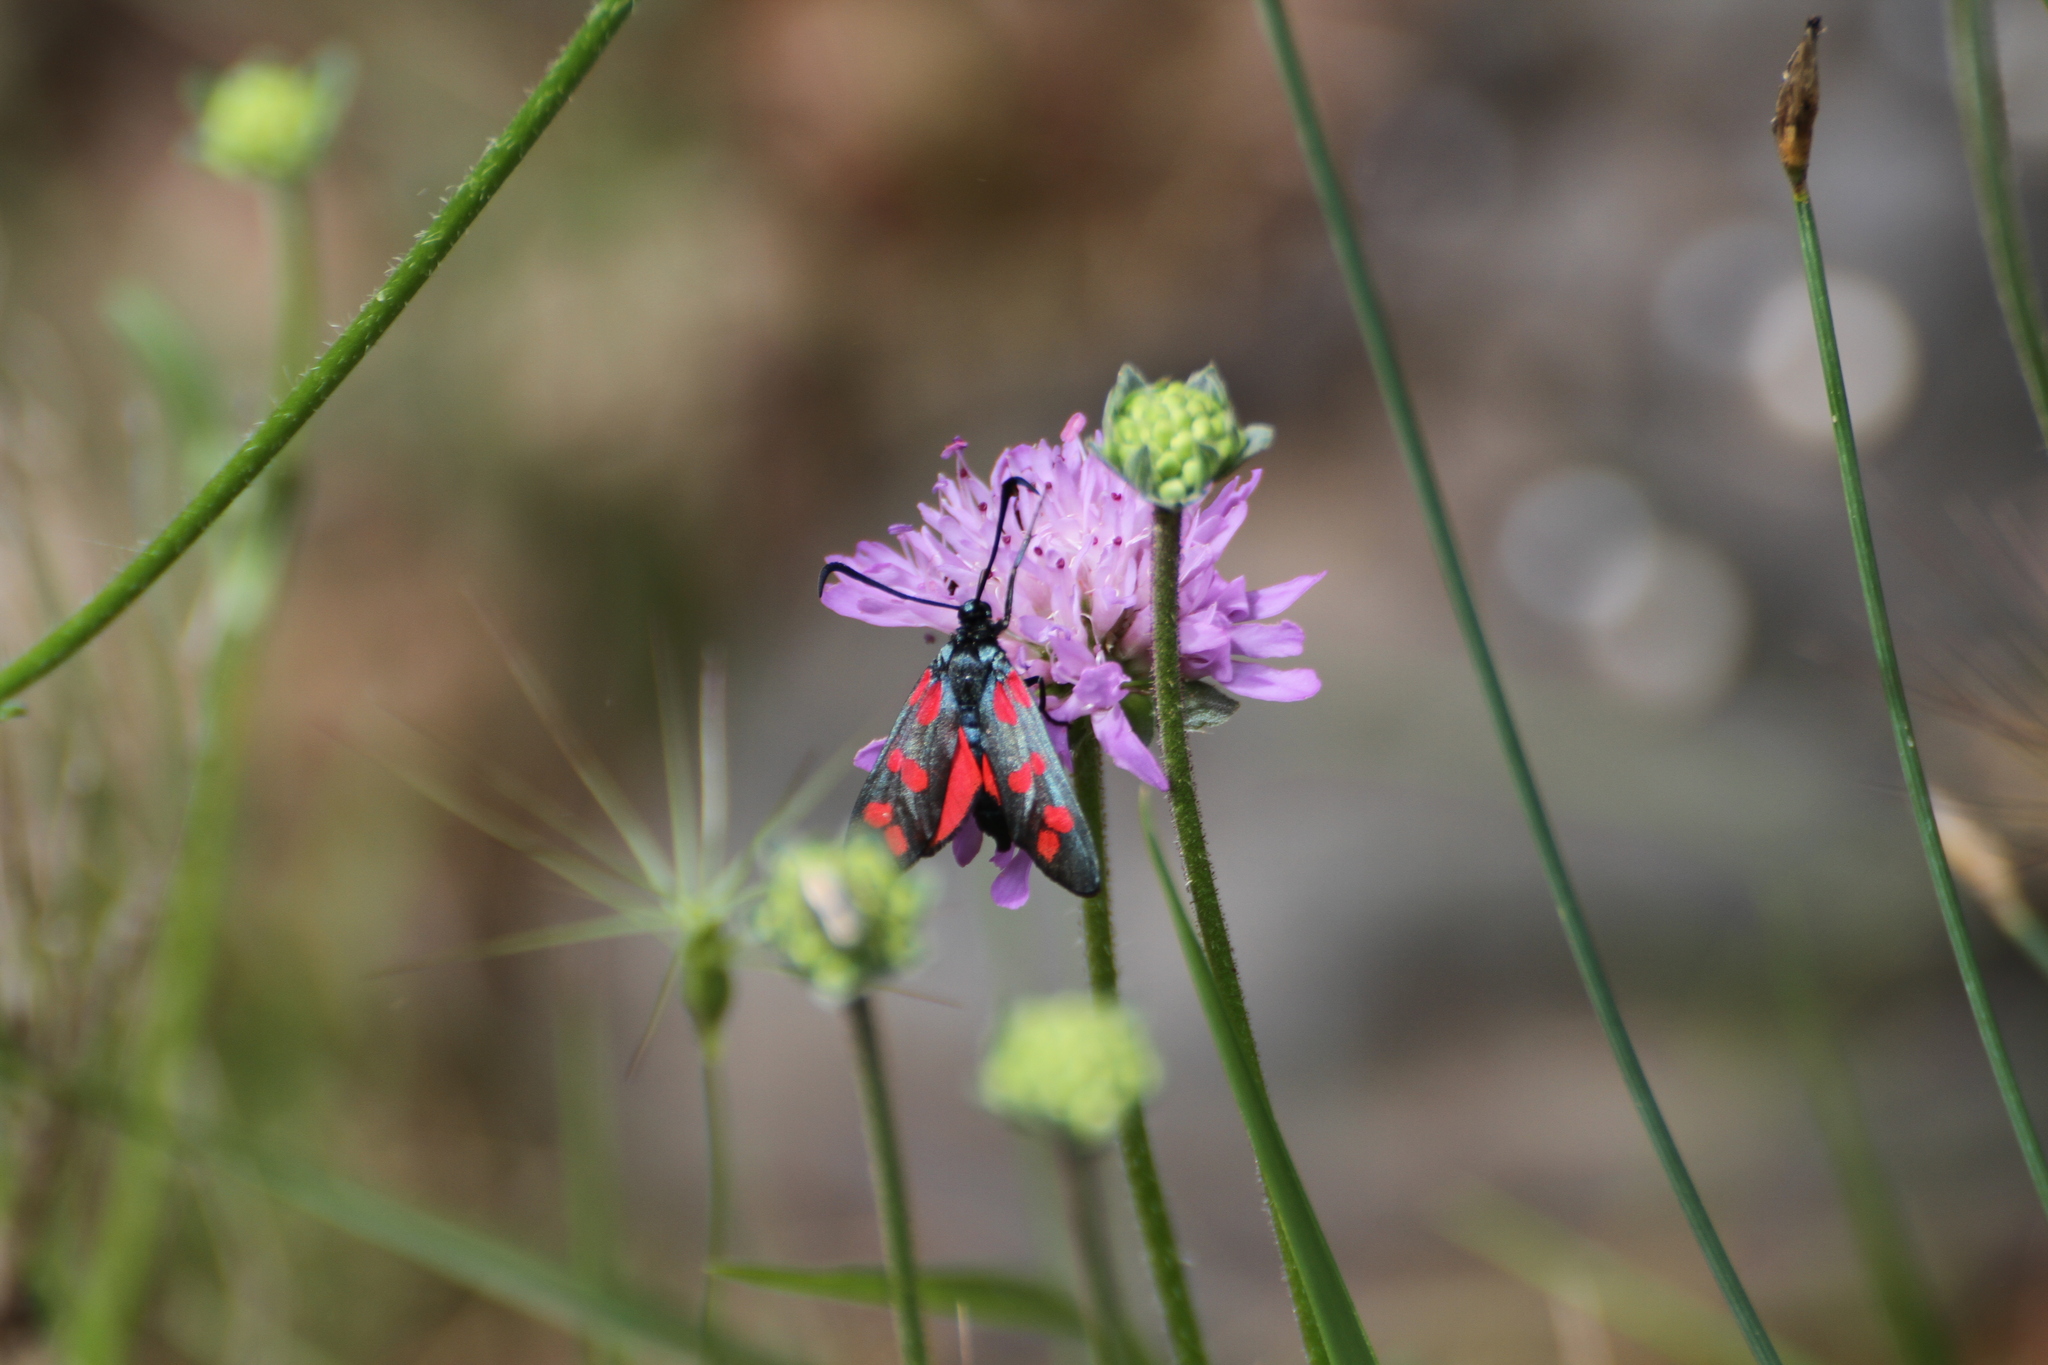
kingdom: Animalia
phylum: Arthropoda
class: Insecta
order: Lepidoptera
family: Zygaenidae
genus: Zygaena
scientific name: Zygaena filipendulae
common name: Six-spot burnet
